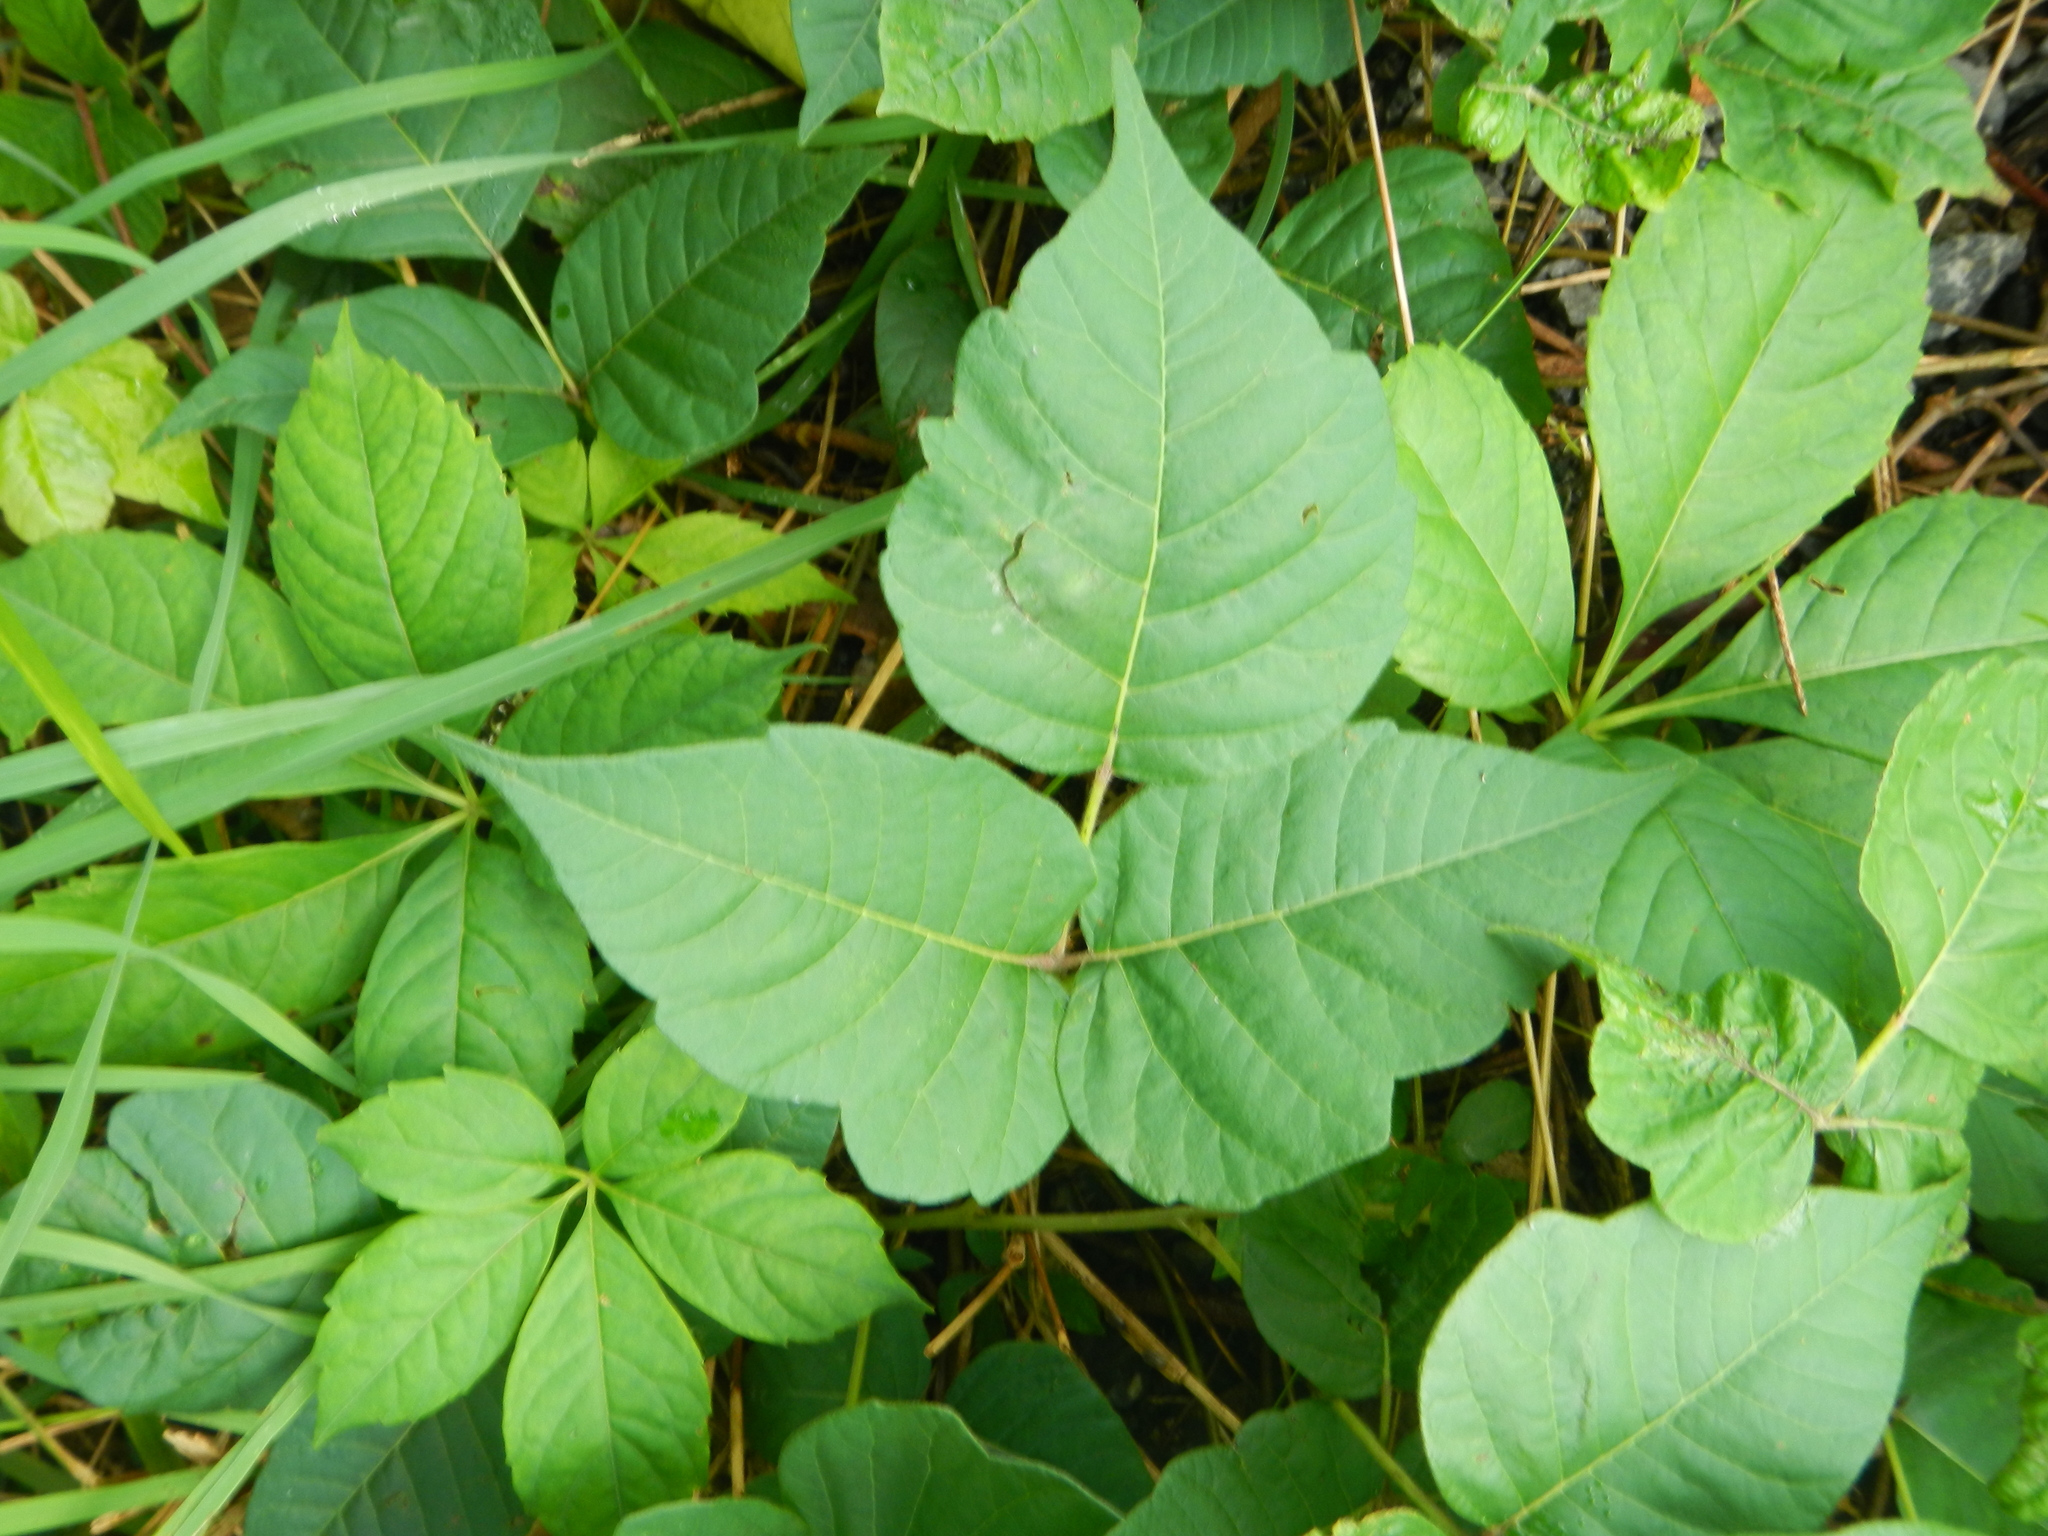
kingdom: Plantae
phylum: Tracheophyta
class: Magnoliopsida
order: Sapindales
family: Anacardiaceae
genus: Toxicodendron
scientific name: Toxicodendron radicans
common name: Poison ivy
